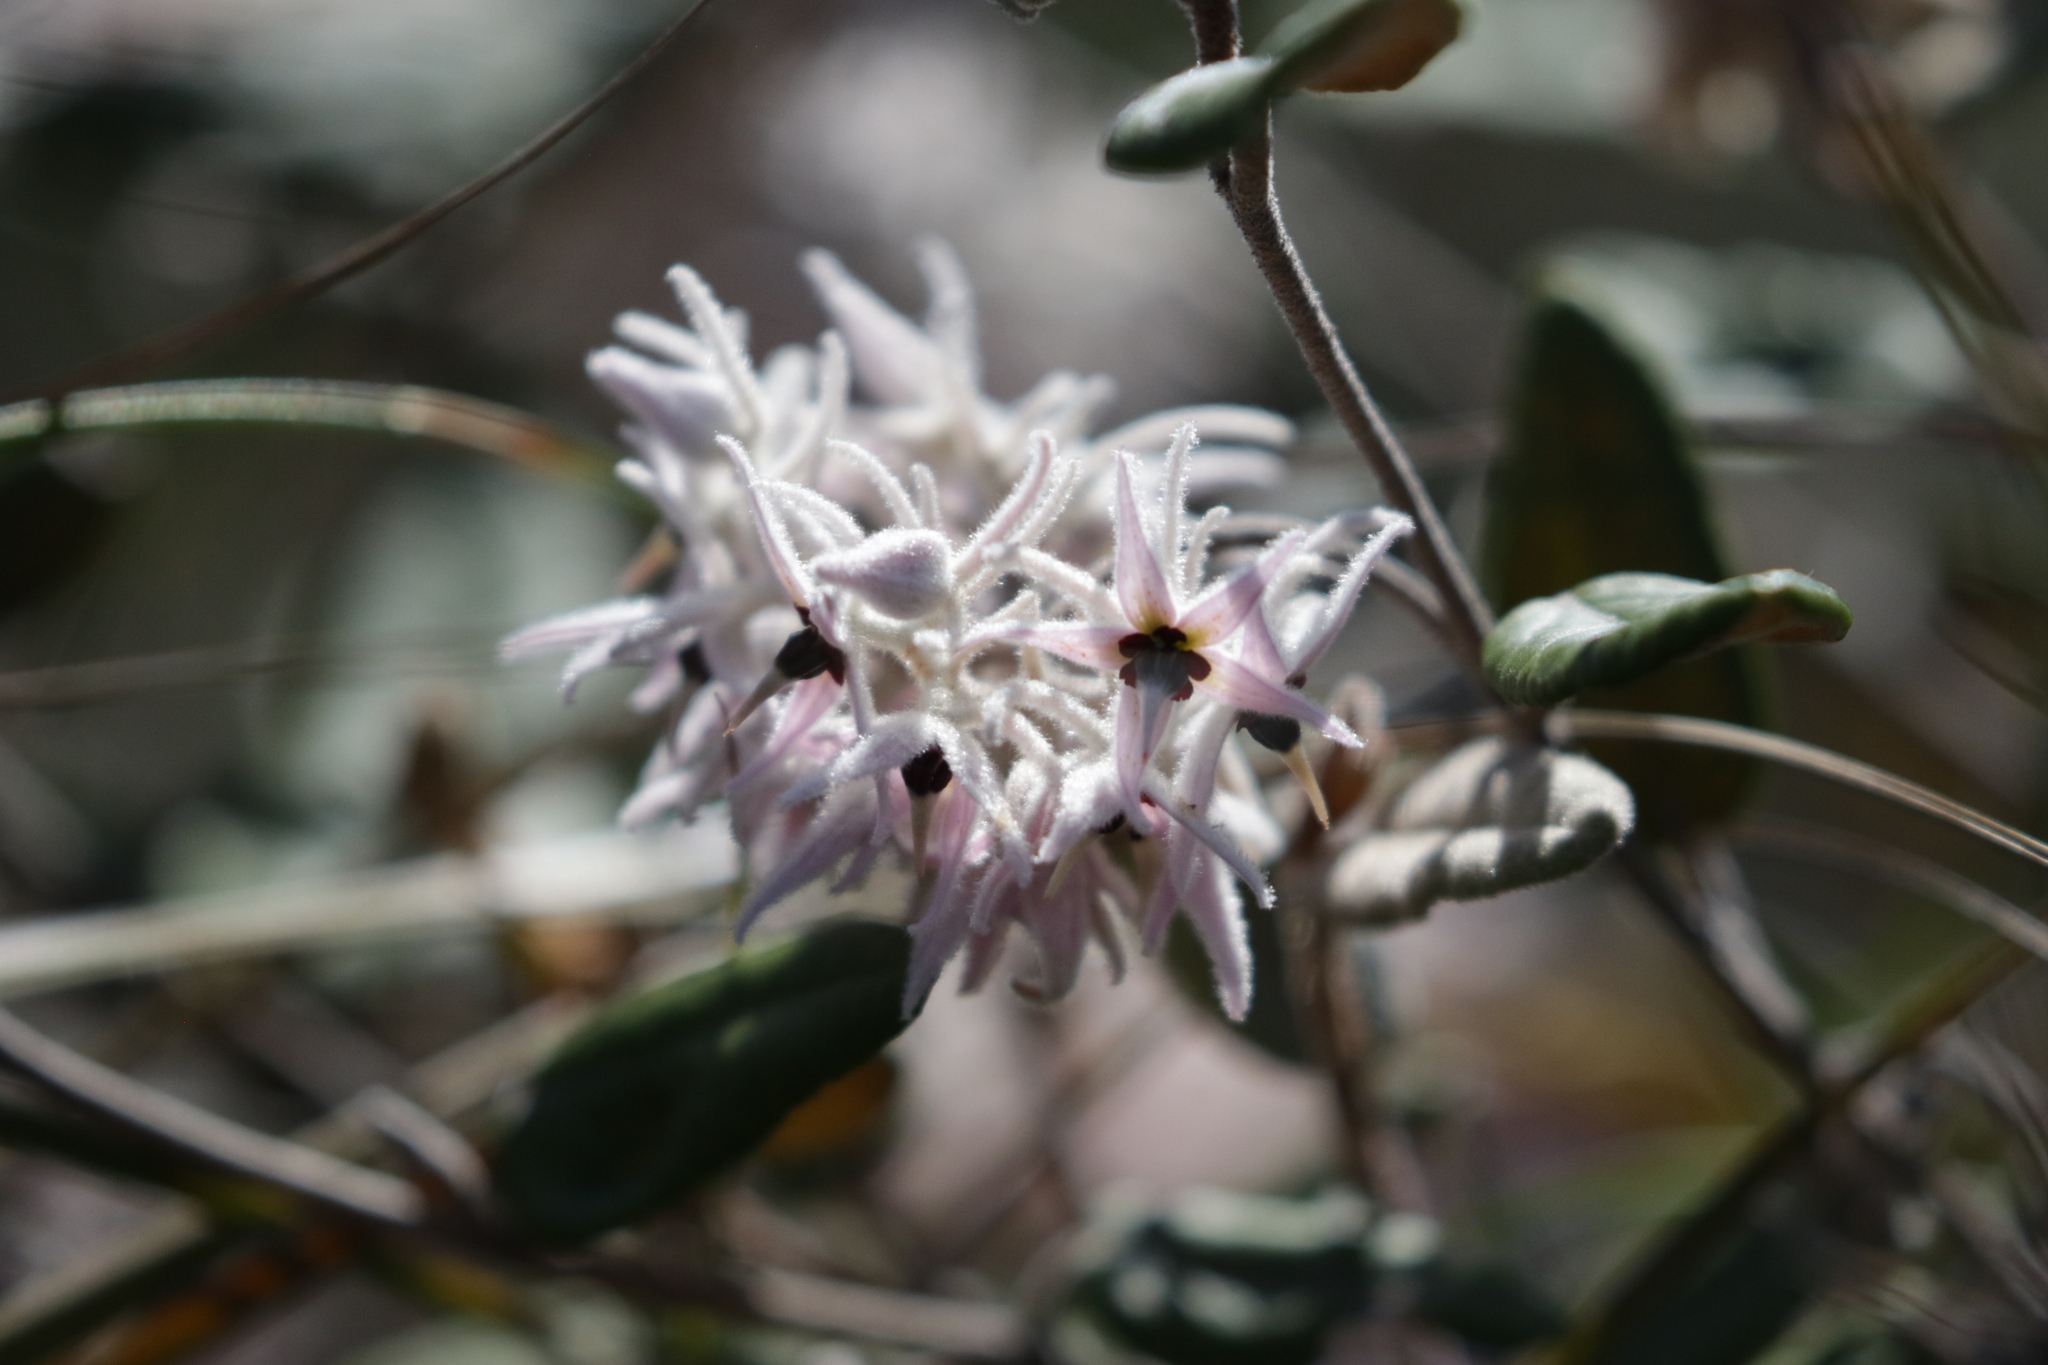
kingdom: Plantae
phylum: Tracheophyta
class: Magnoliopsida
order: Malvales
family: Malvaceae
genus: Lasiopetalum
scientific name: Lasiopetalum drummondii
